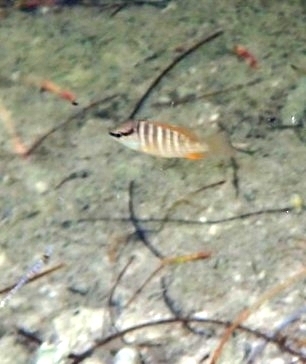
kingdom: Animalia
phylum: Chordata
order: Perciformes
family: Lutjanidae
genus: Lutjanus
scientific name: Lutjanus apodus
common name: Schoolmaster
